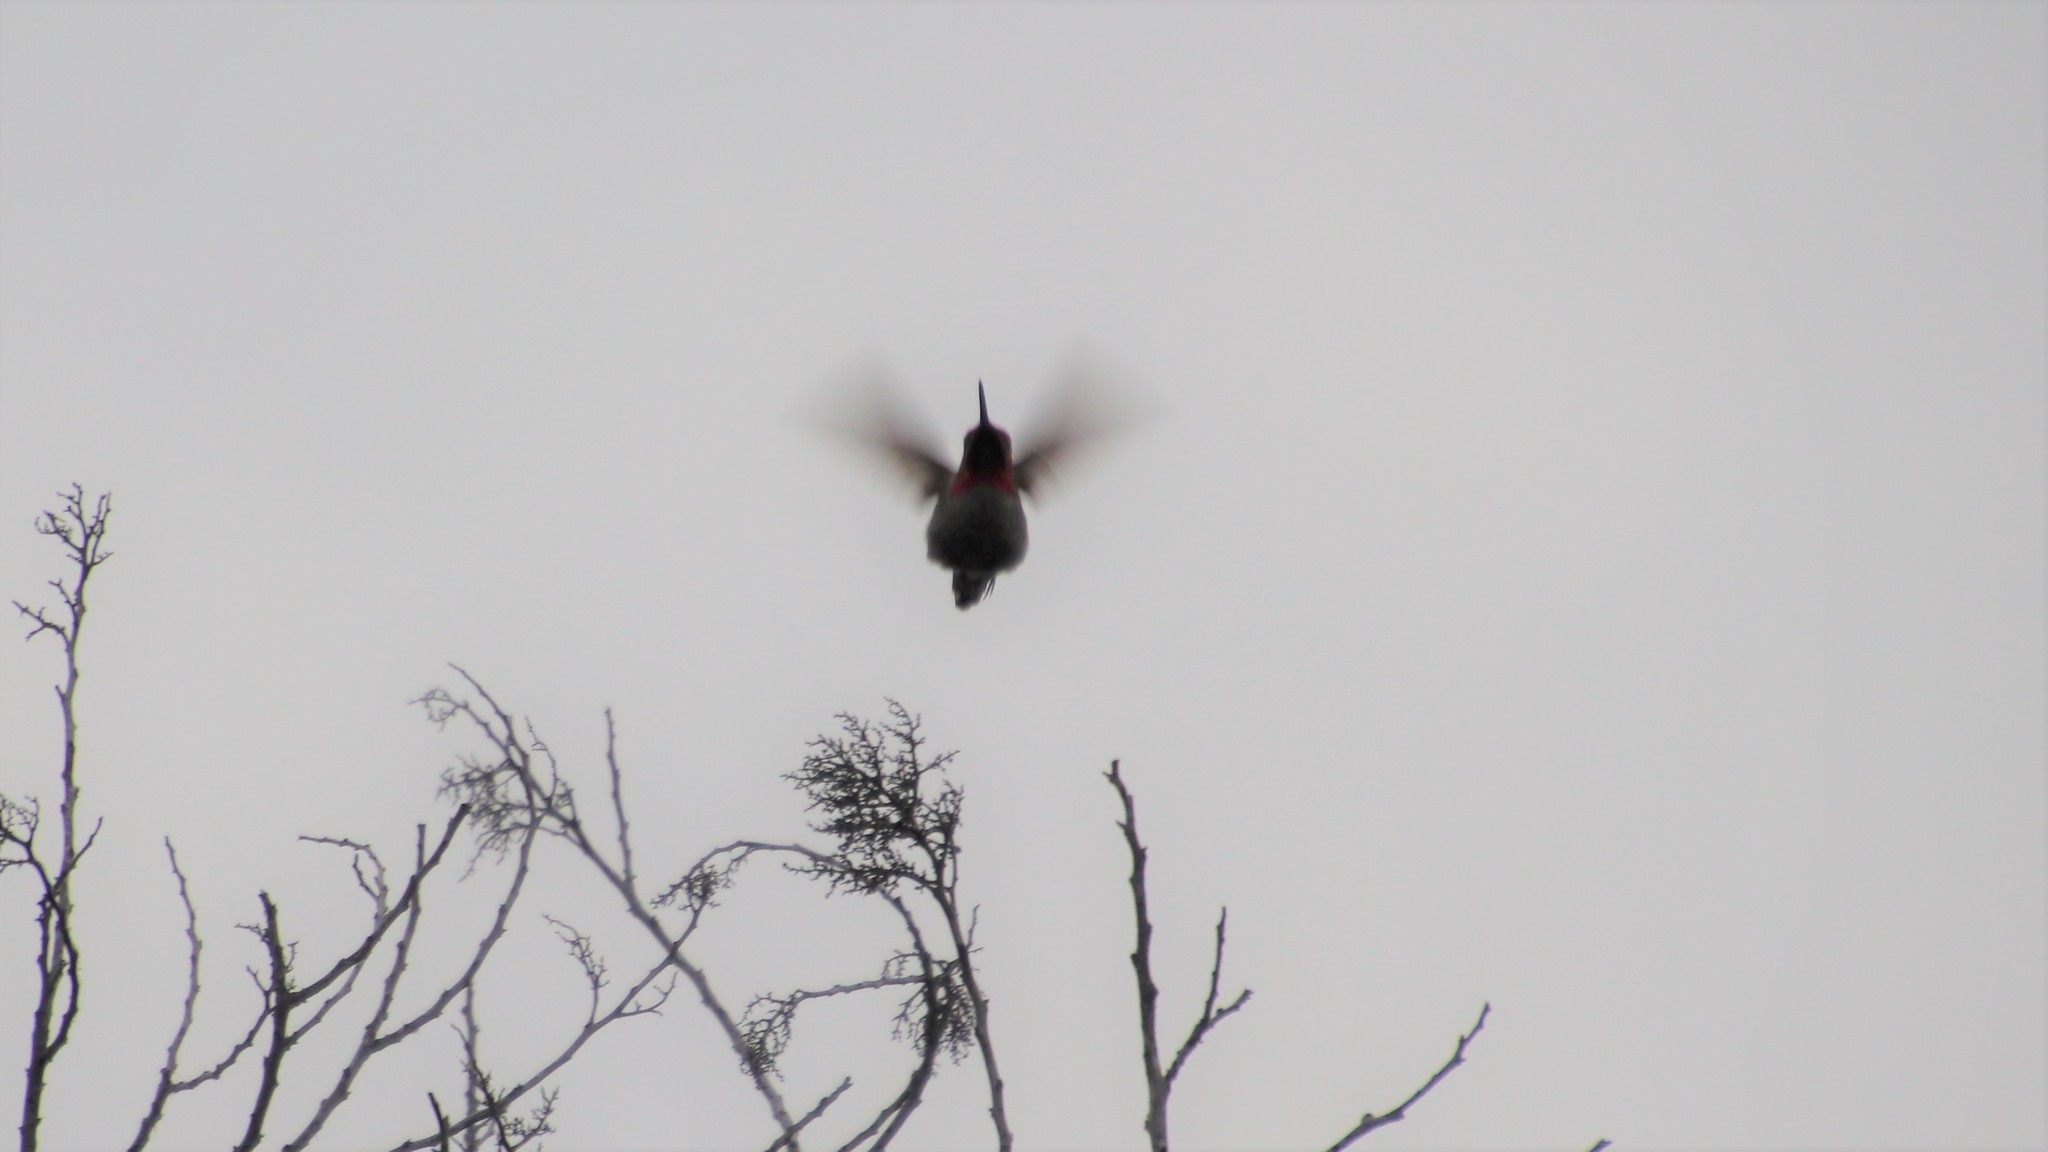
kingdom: Animalia
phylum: Chordata
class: Aves
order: Apodiformes
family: Trochilidae
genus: Calypte
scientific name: Calypte anna
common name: Anna's hummingbird
